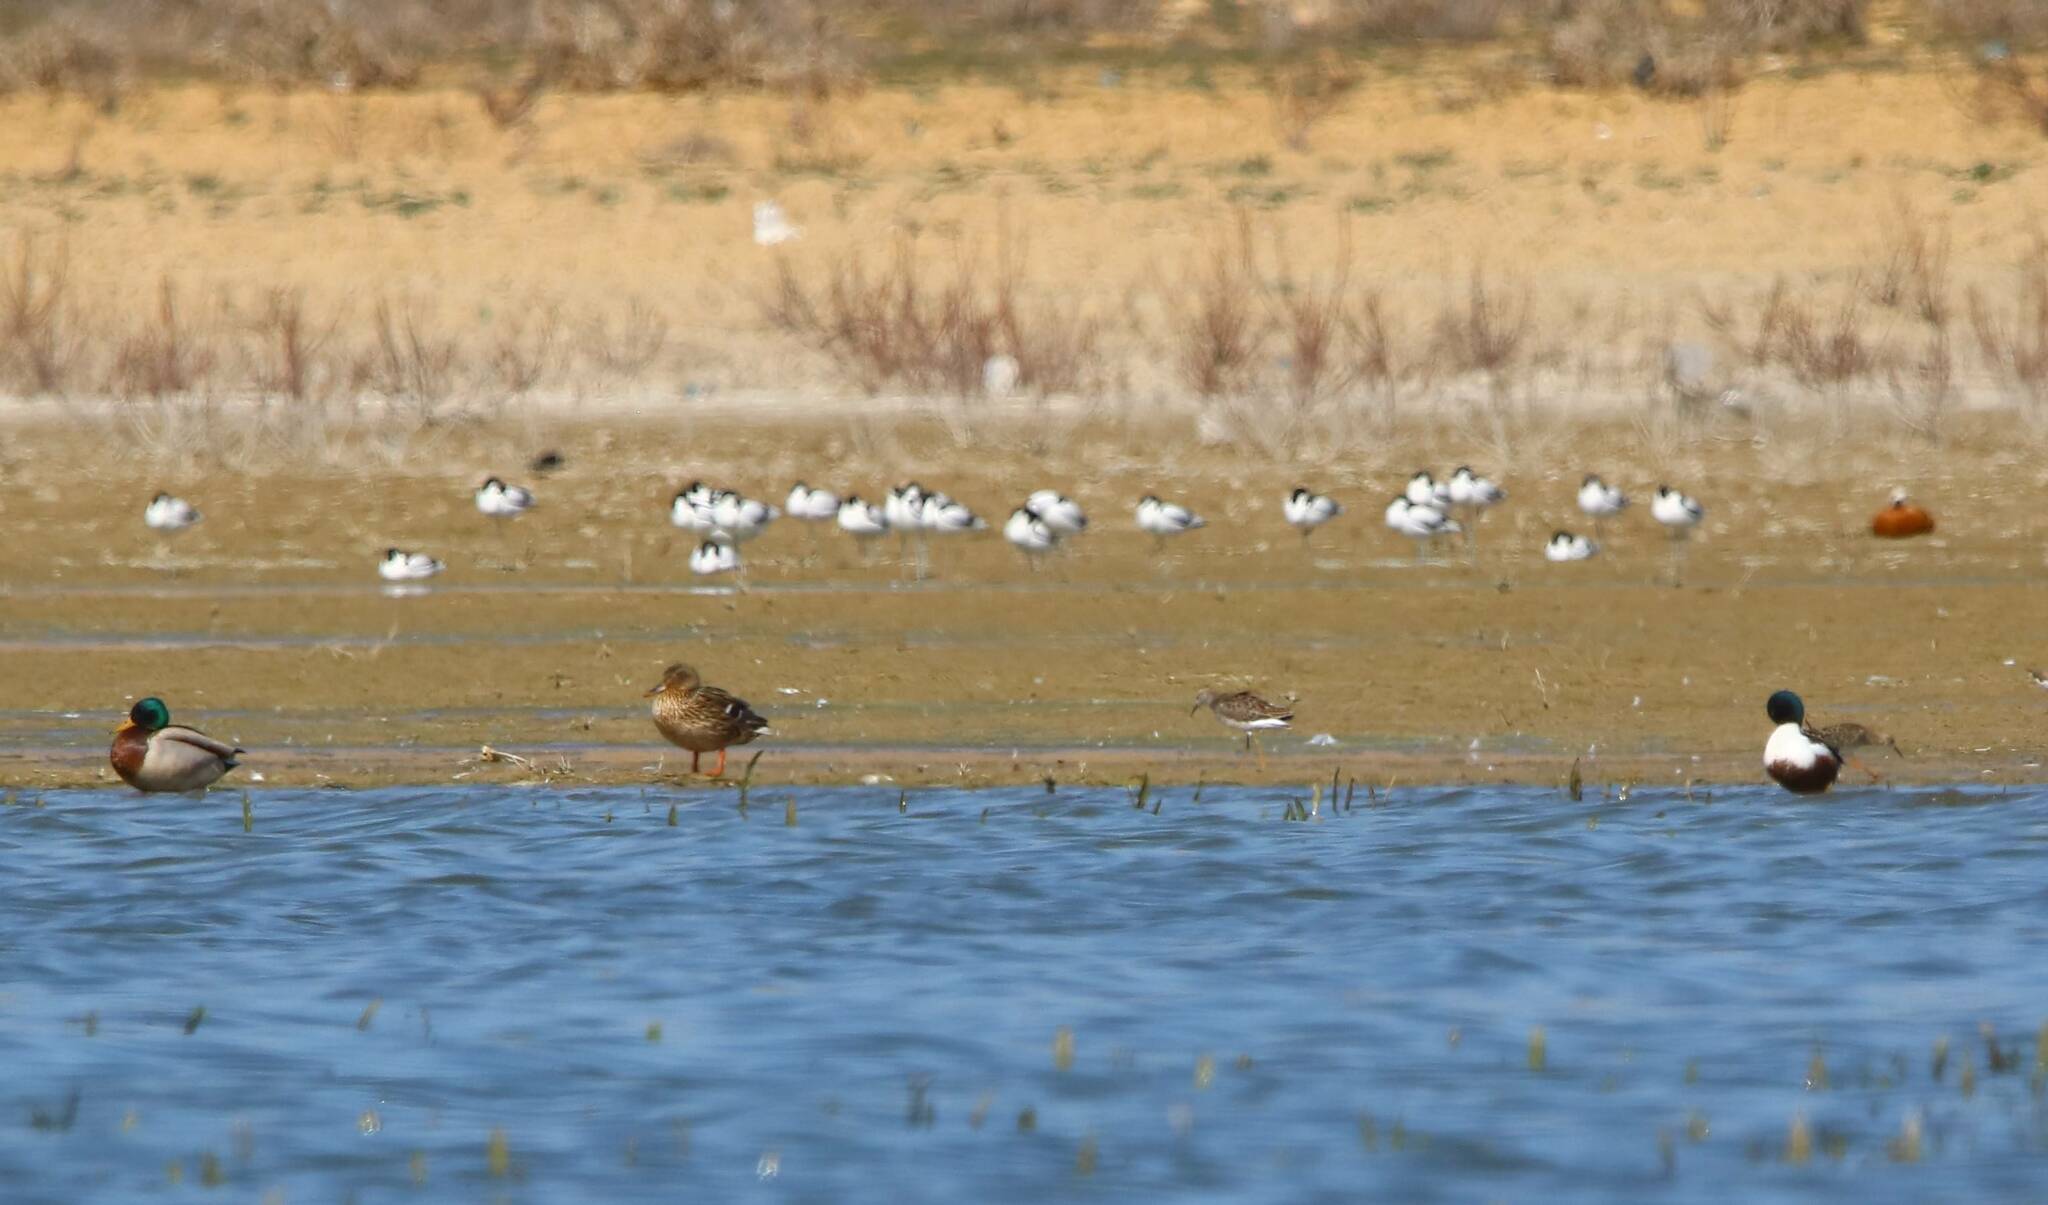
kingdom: Animalia
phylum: Chordata
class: Aves
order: Anseriformes
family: Anatidae
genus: Anas
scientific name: Anas platyrhynchos
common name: Mallard
